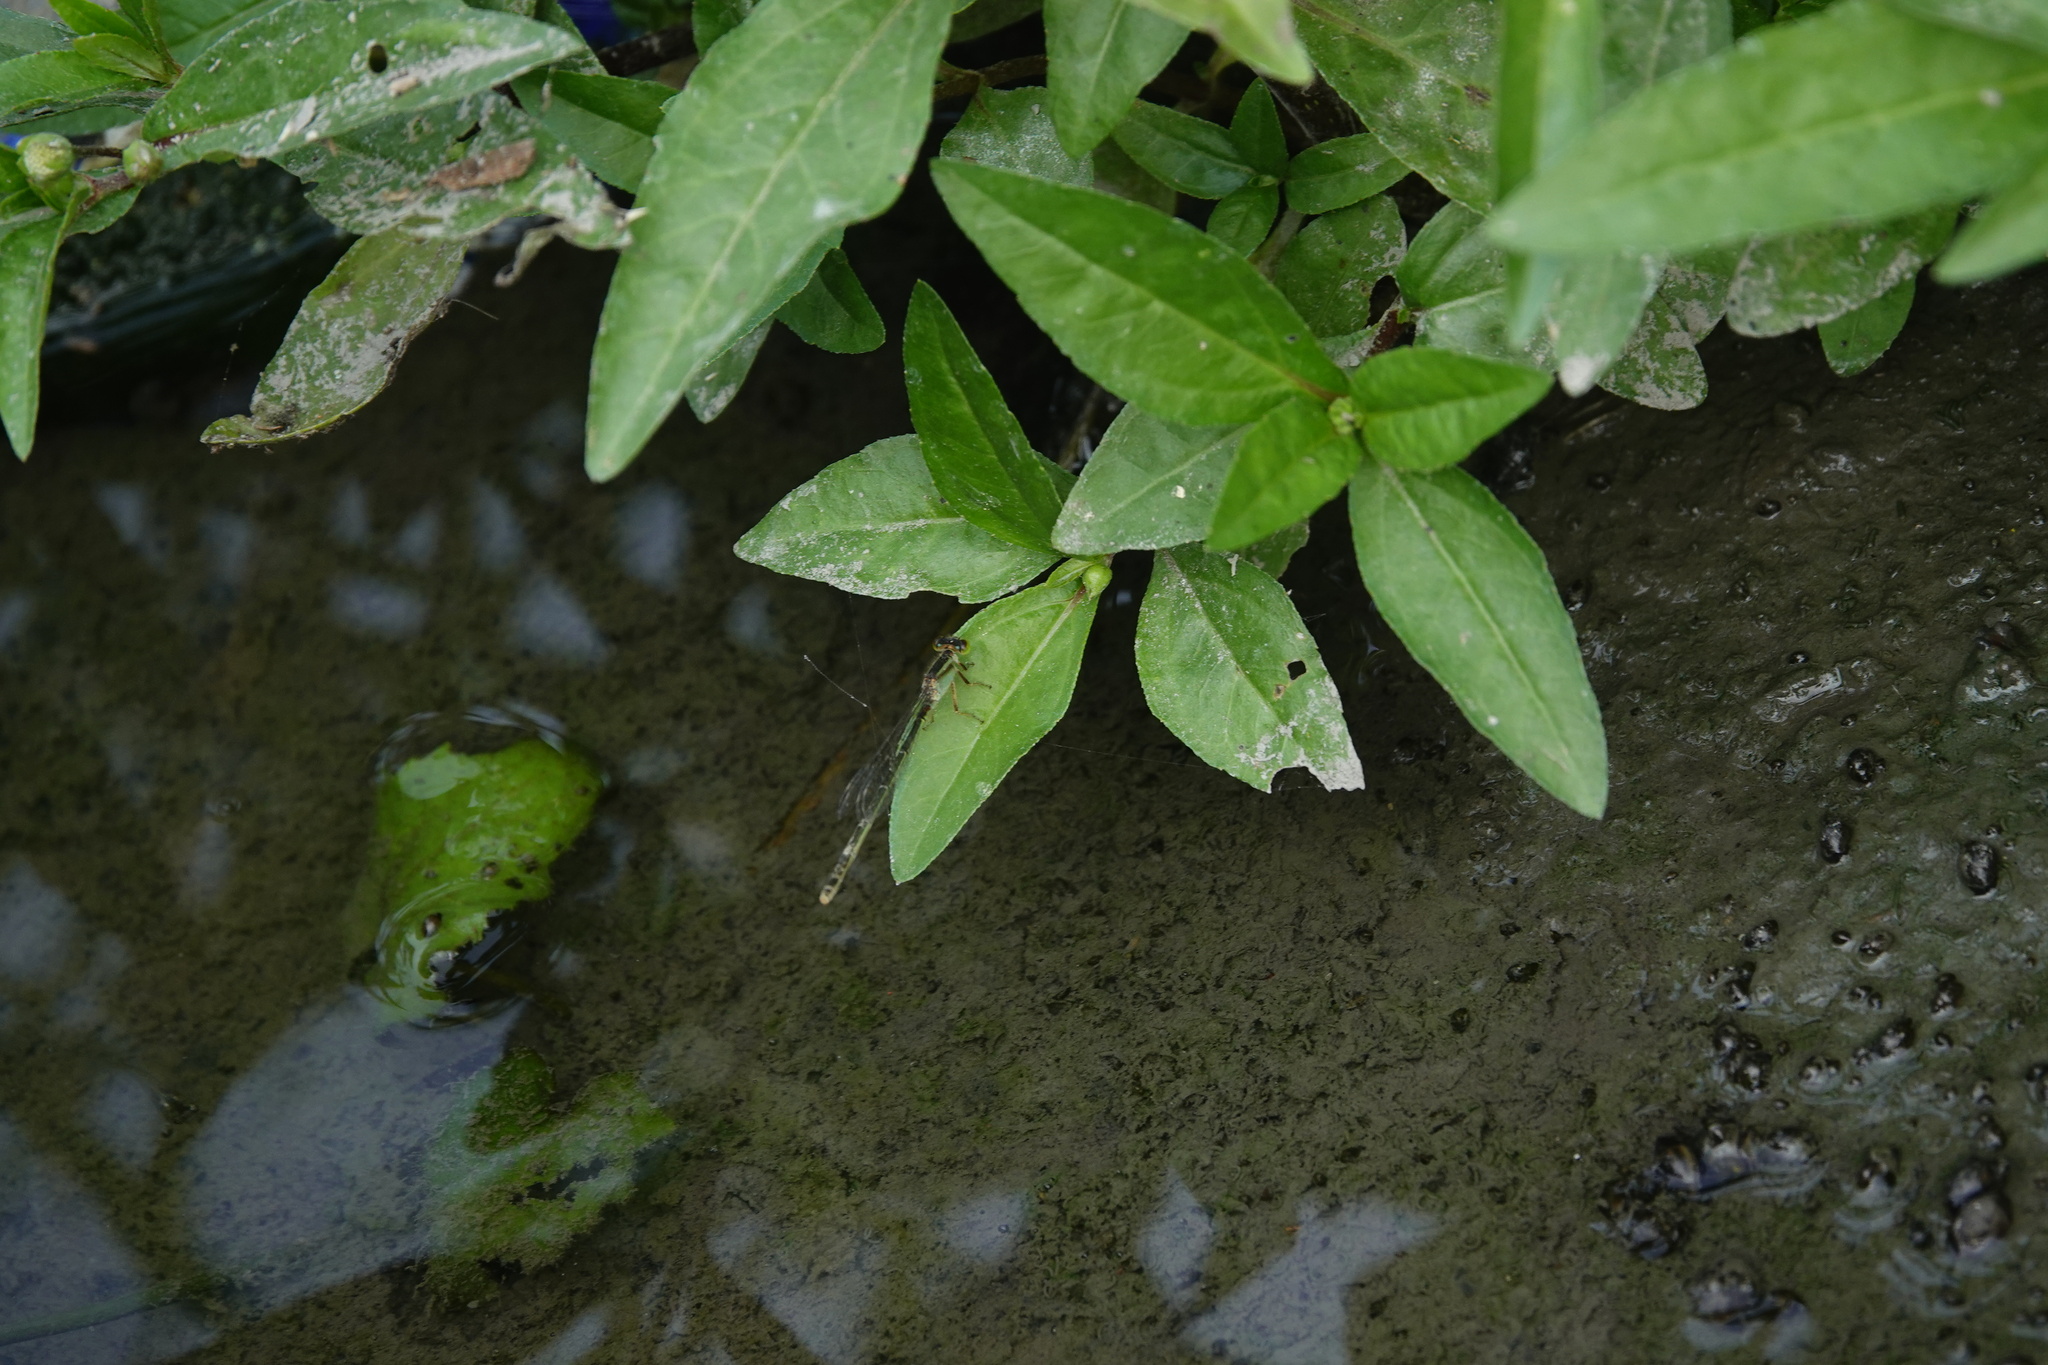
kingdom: Animalia
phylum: Arthropoda
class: Insecta
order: Odonata
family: Coenagrionidae
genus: Ischnura
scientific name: Ischnura senegalensis
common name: Tropical bluetail
